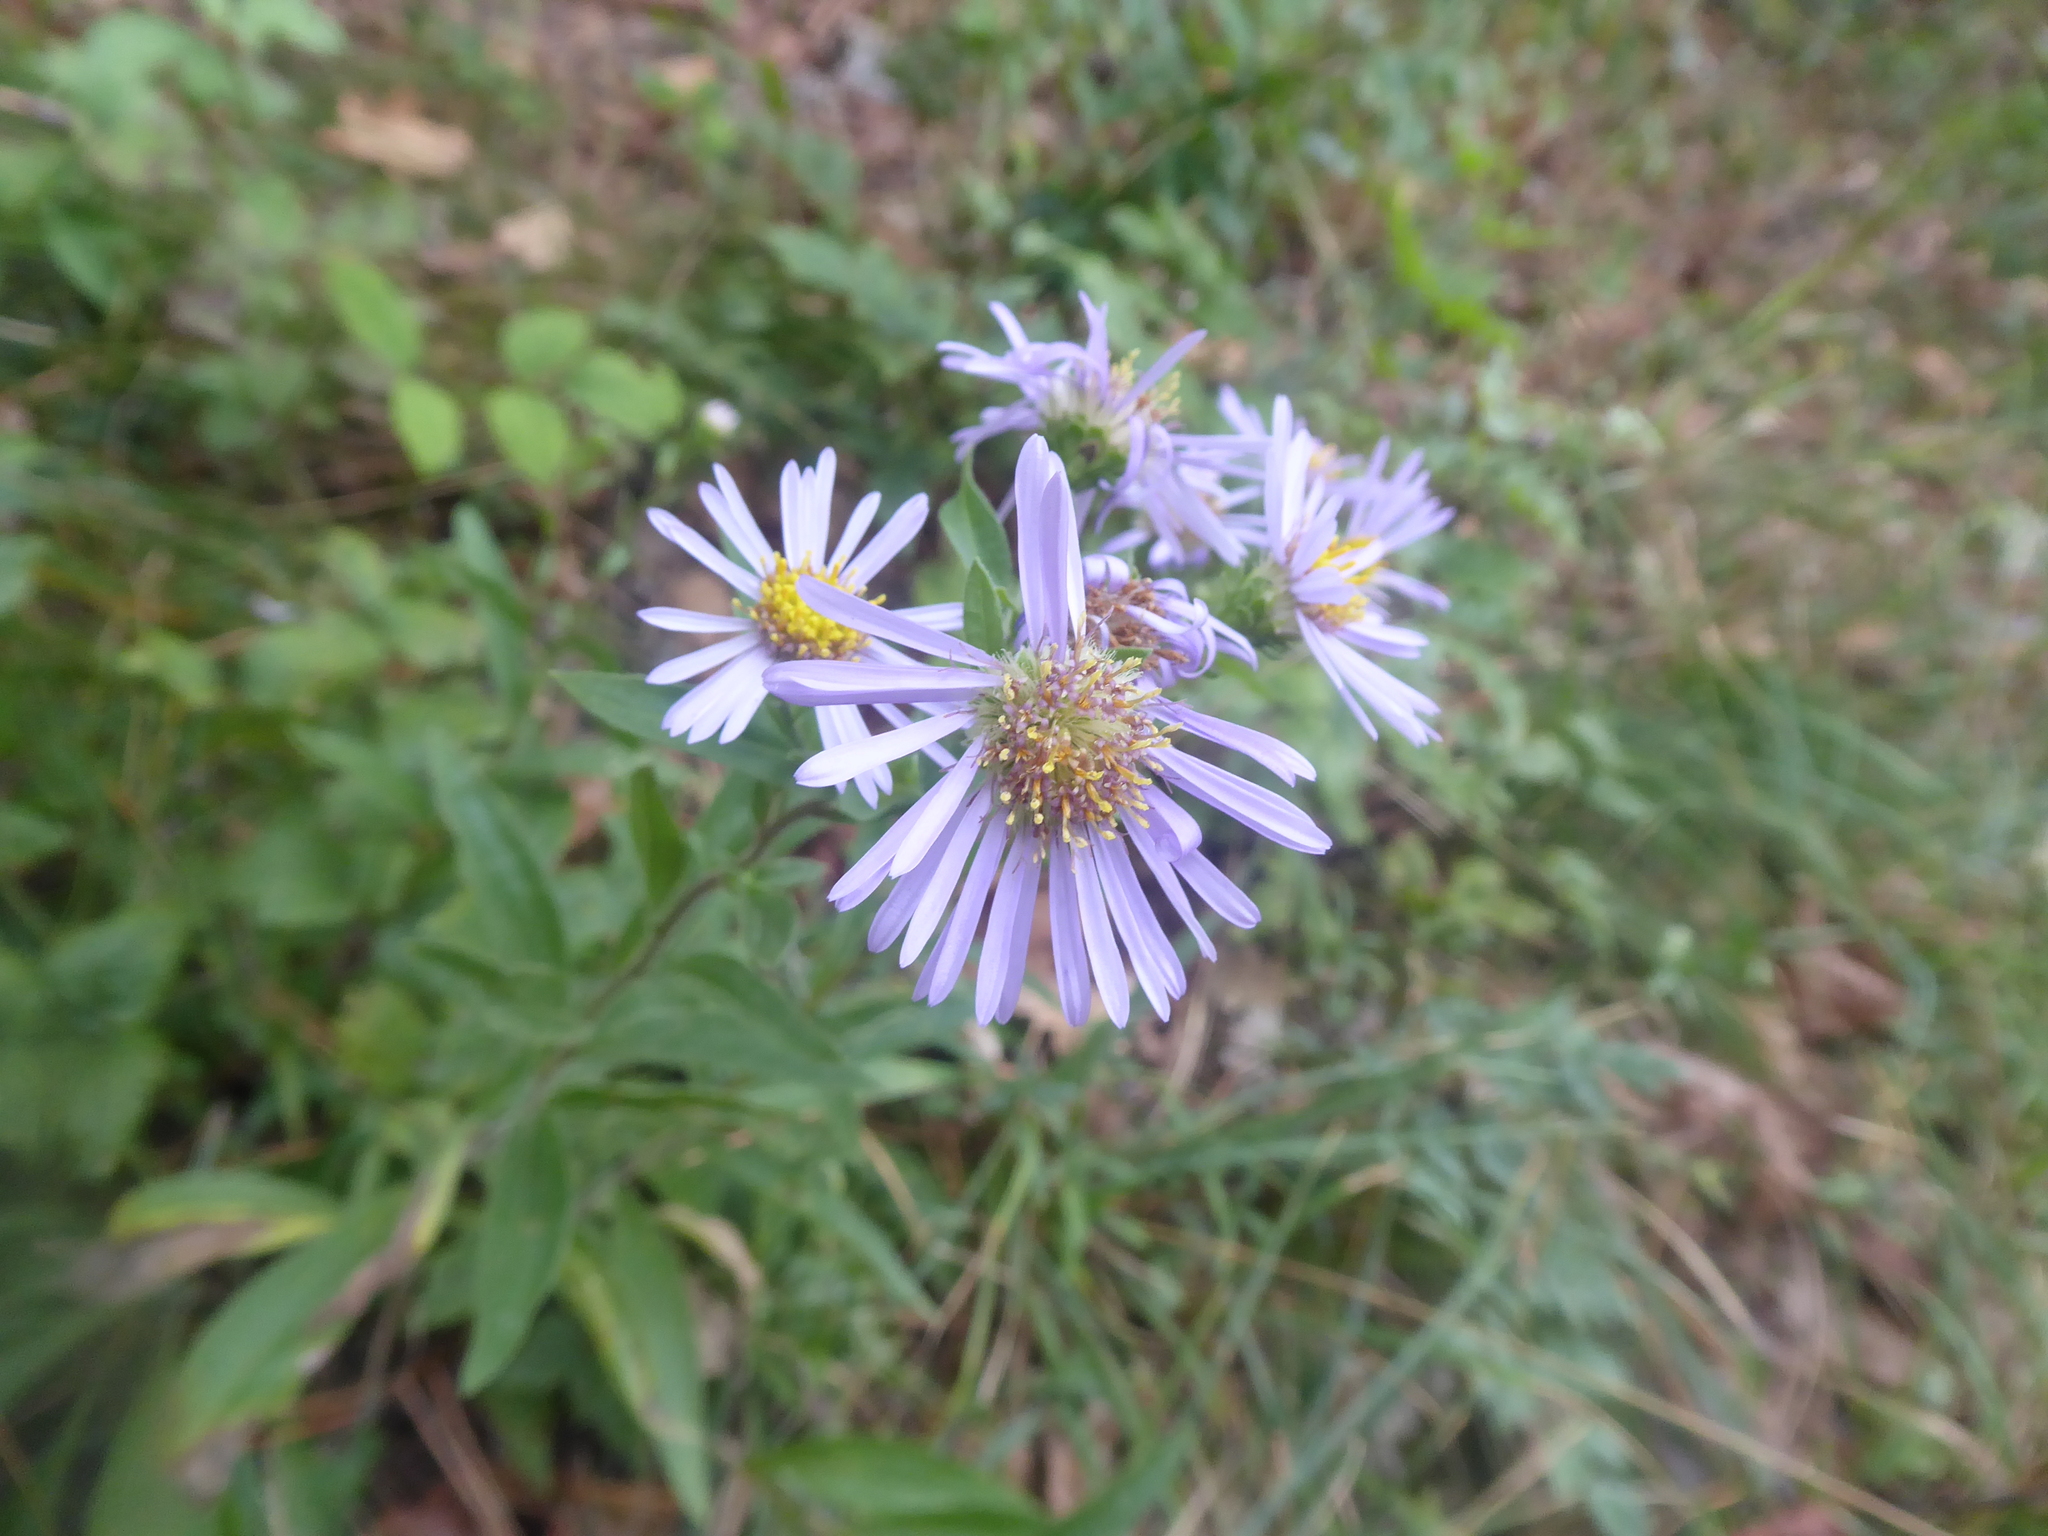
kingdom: Plantae
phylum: Tracheophyta
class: Magnoliopsida
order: Asterales
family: Asteraceae
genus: Aster
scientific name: Aster amellus
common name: European michaelmas daisy
